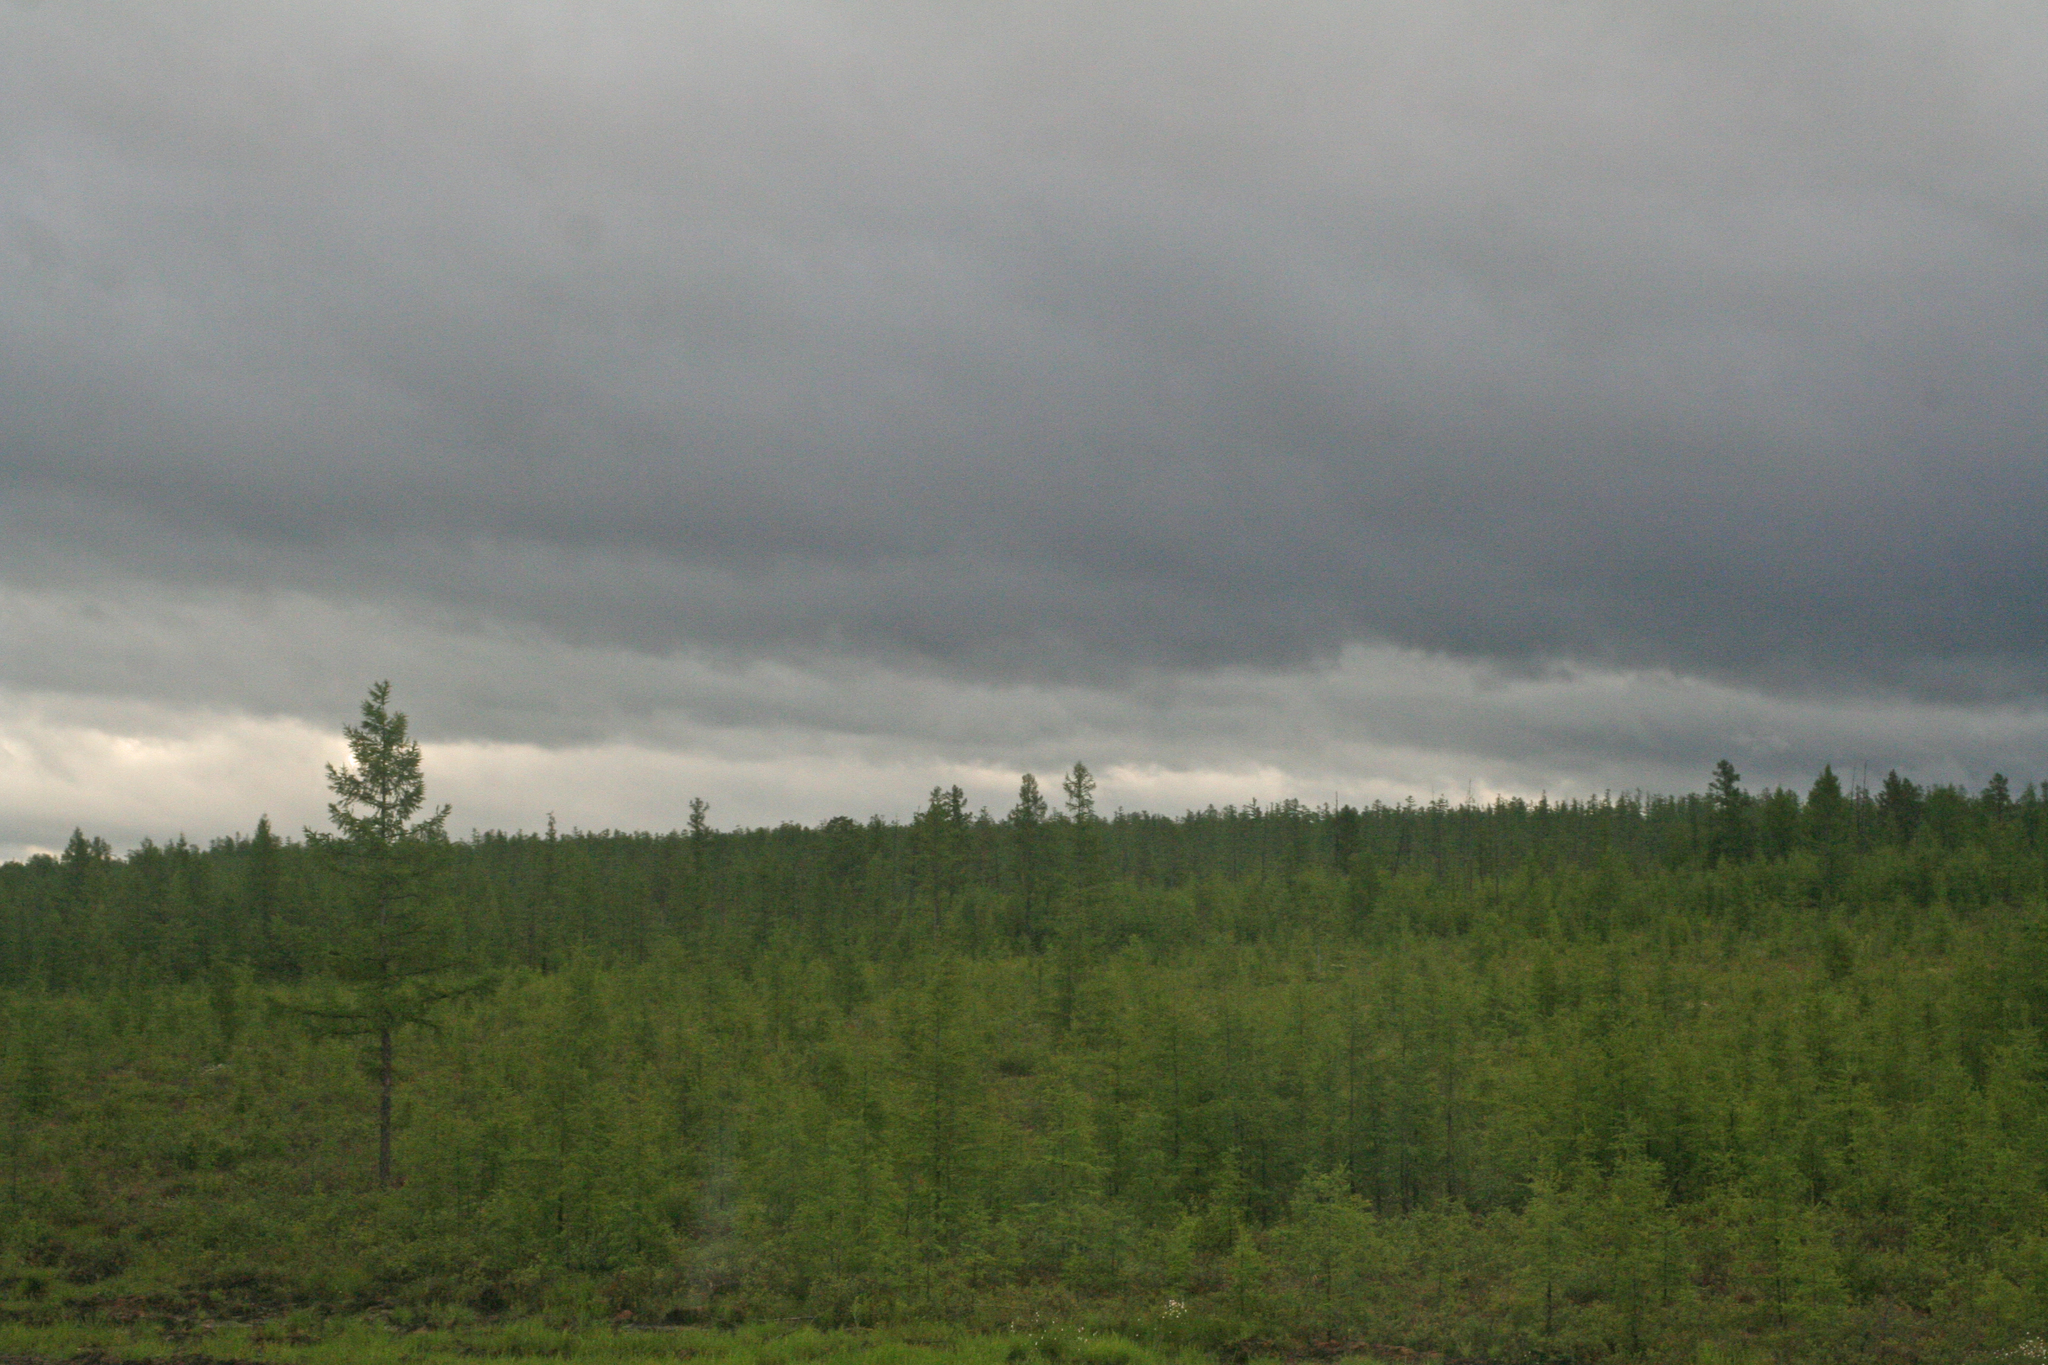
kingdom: Plantae
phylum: Tracheophyta
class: Pinopsida
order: Pinales
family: Pinaceae
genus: Larix
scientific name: Larix gmelinii
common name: Dahurian larch
